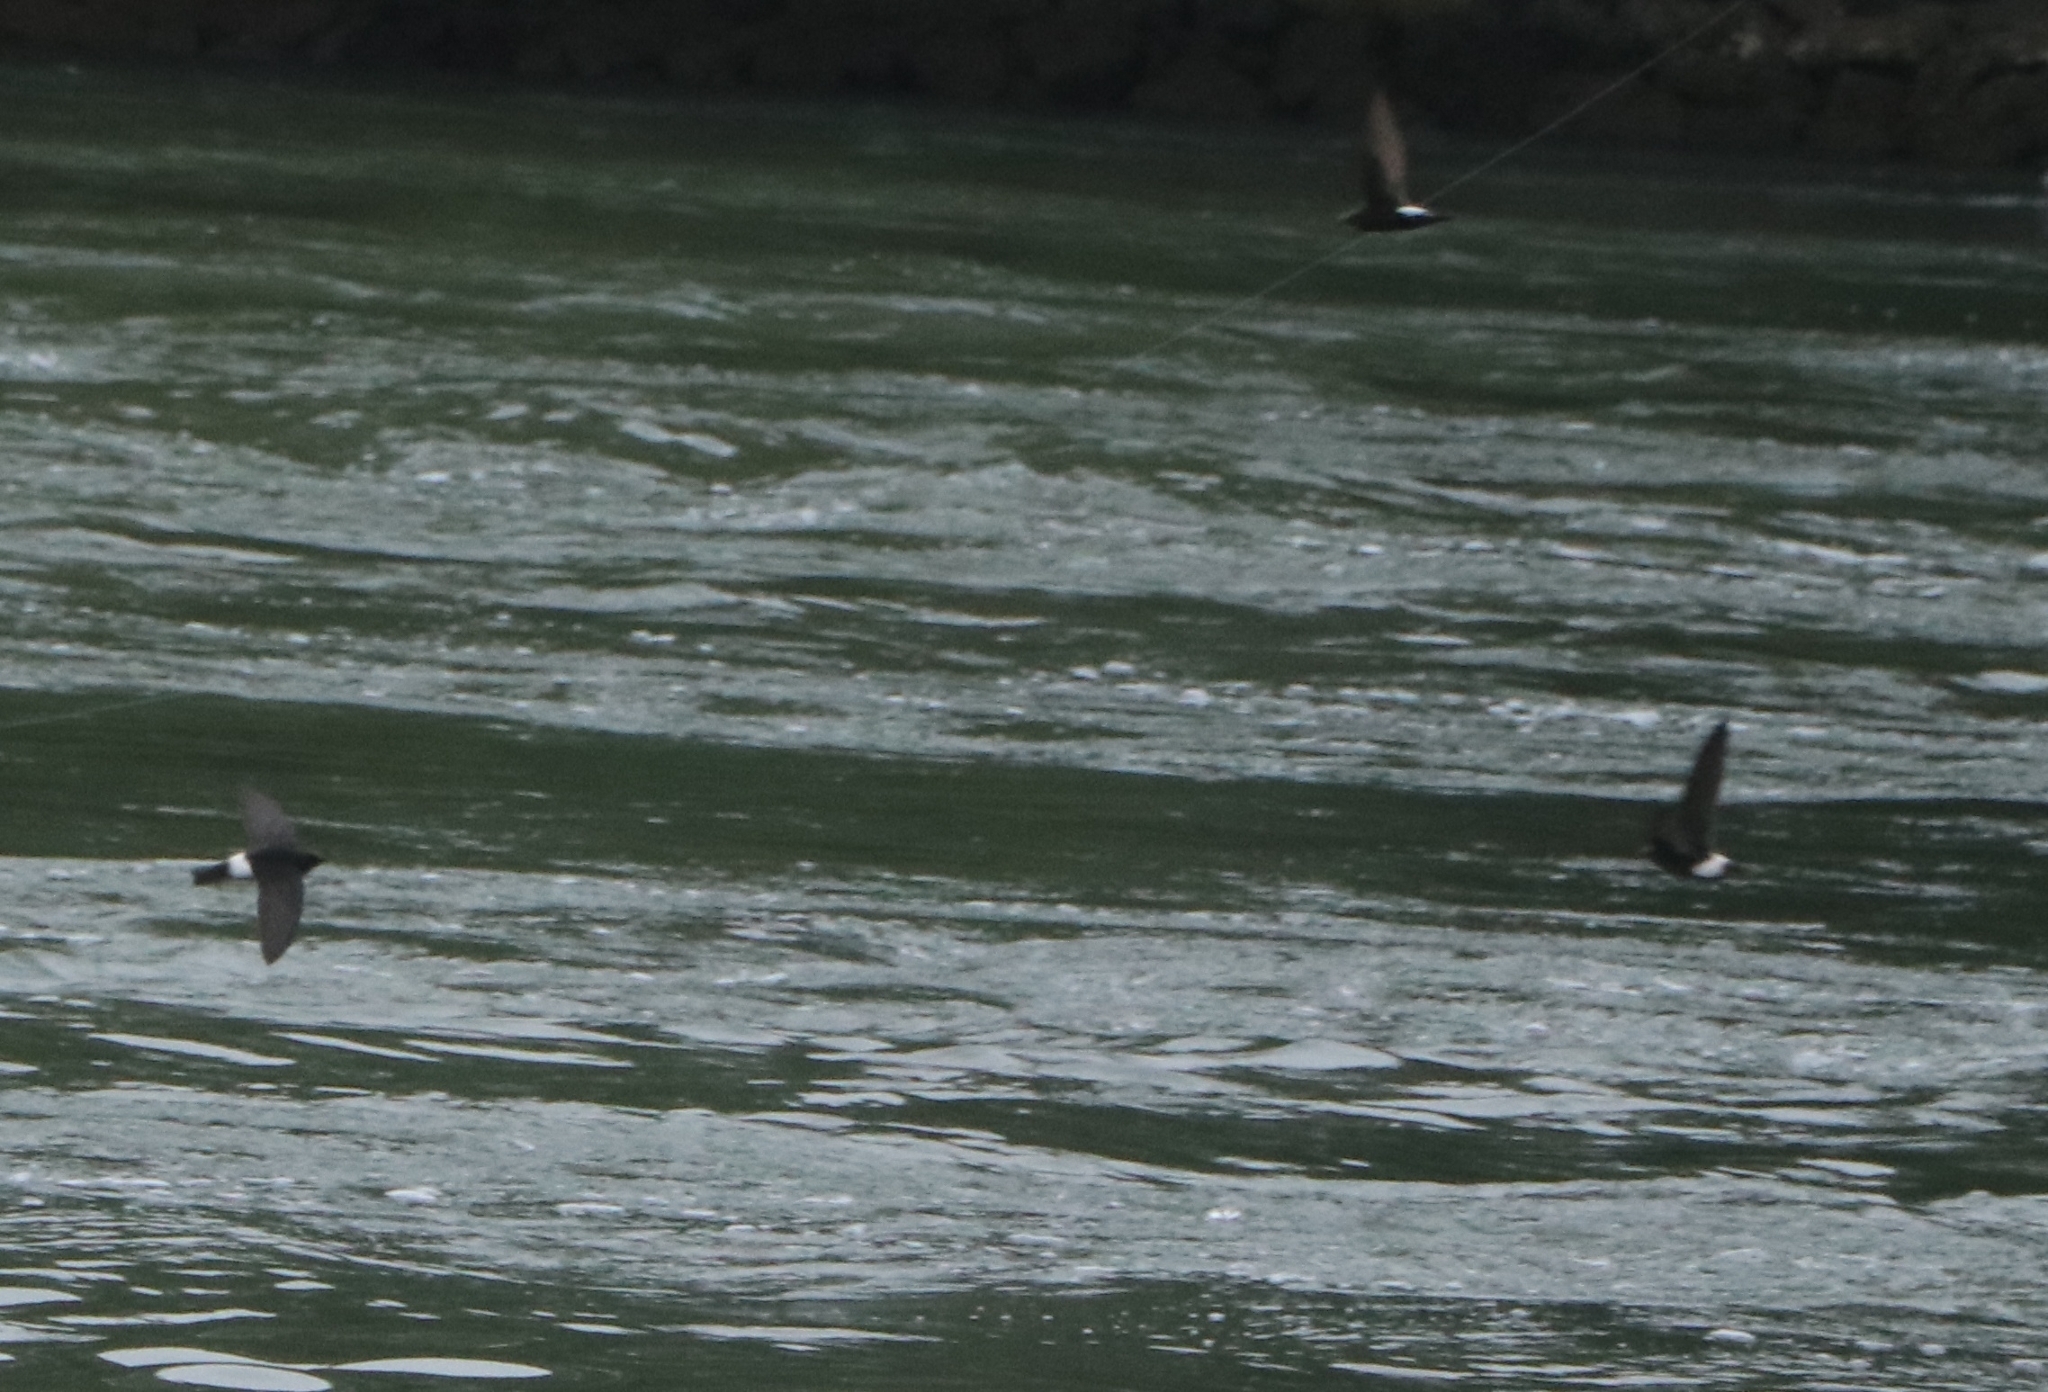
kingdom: Animalia
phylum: Chordata
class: Aves
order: Apodiformes
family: Apodidae
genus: Apus
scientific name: Apus affinis
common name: Little swift
